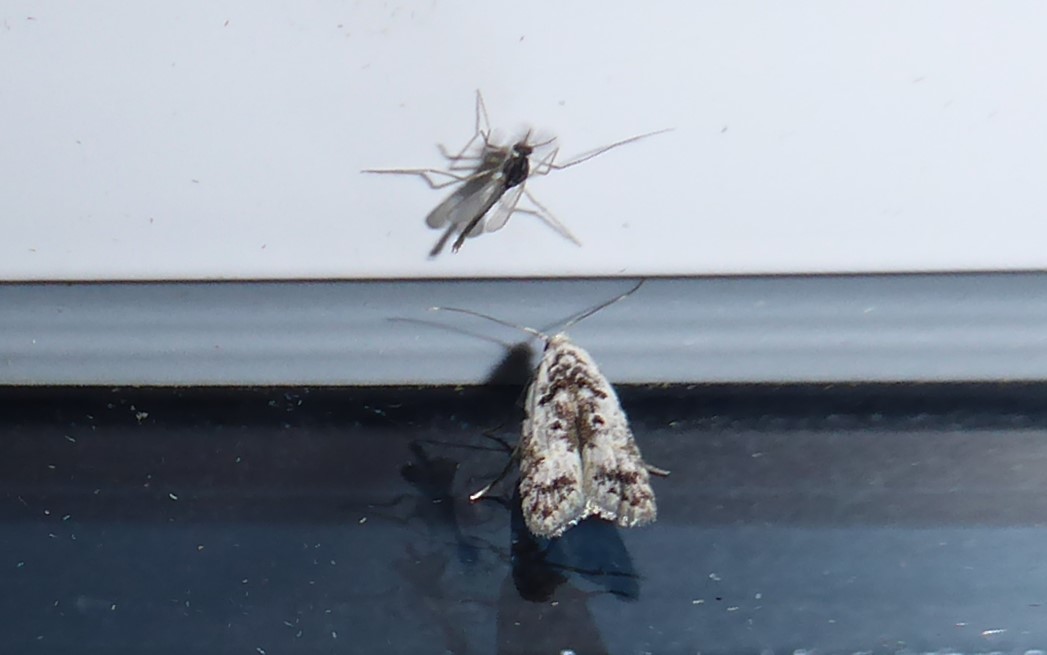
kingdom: Animalia
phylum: Arthropoda
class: Insecta
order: Lepidoptera
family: Carposinidae
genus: Carposina
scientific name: Carposina
